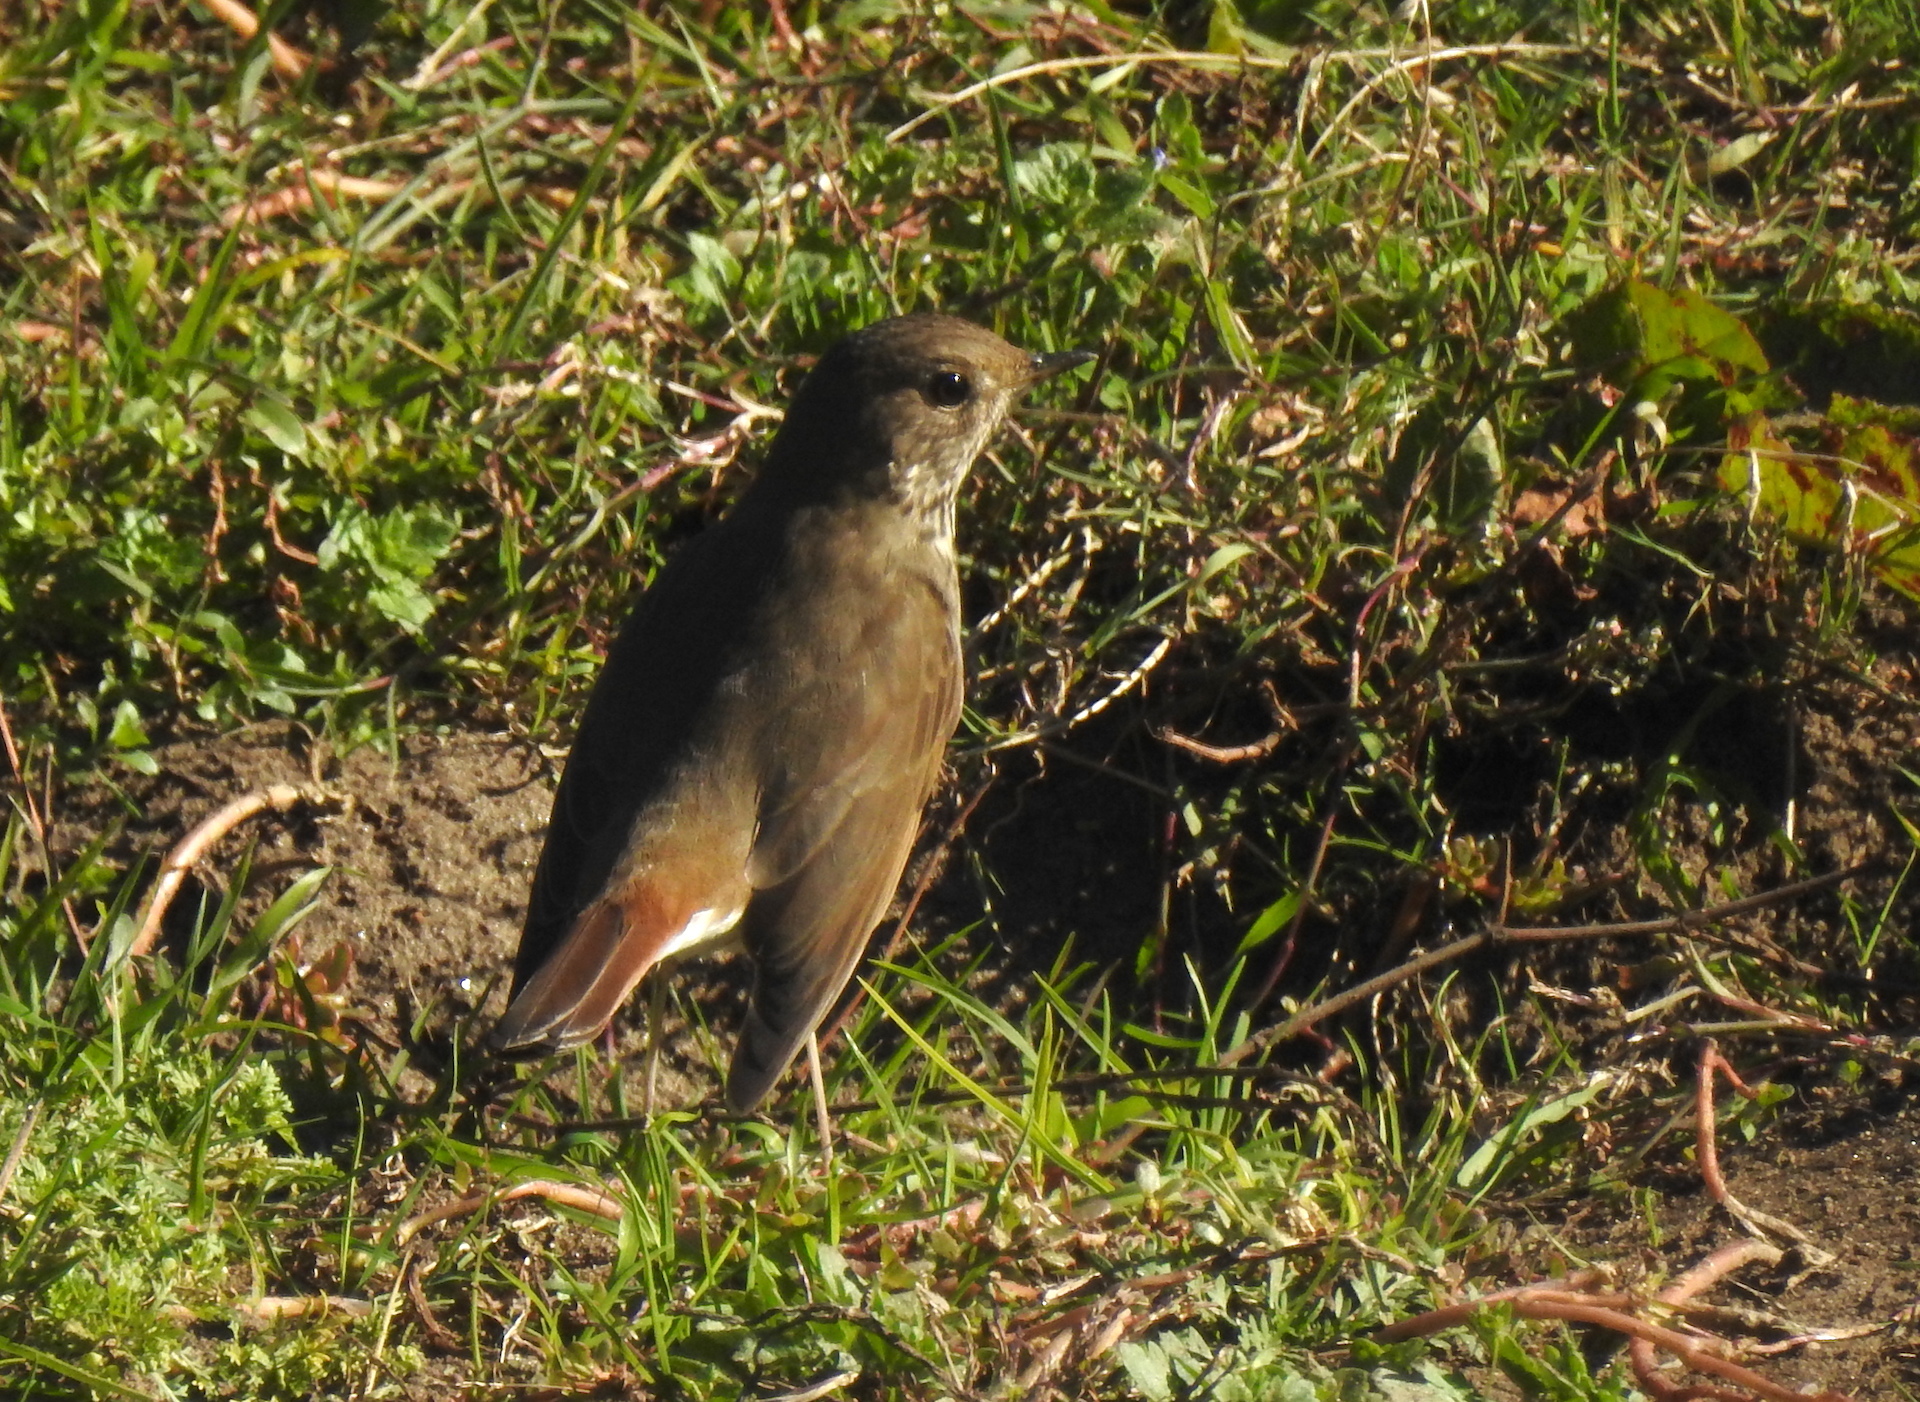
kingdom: Animalia
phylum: Chordata
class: Aves
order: Passeriformes
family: Turdidae
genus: Catharus
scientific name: Catharus guttatus
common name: Hermit thrush
